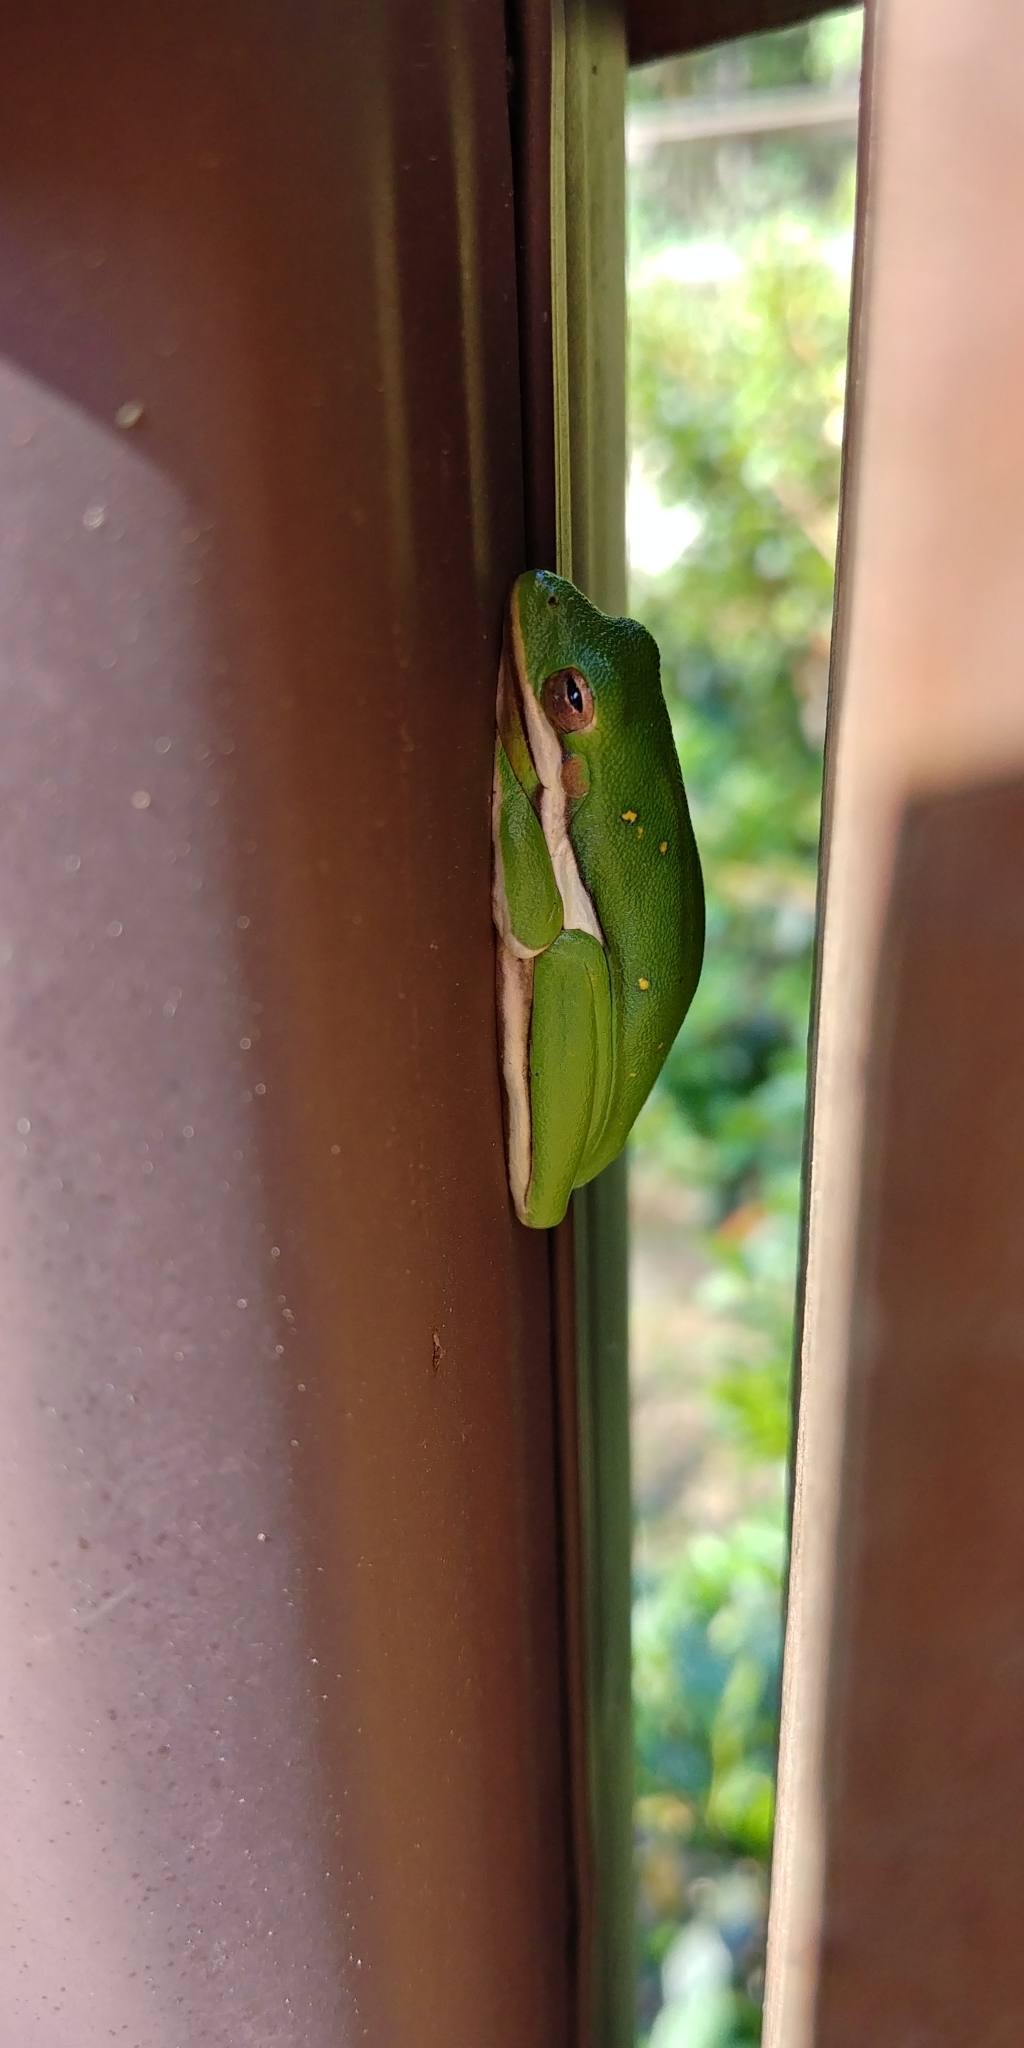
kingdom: Animalia
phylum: Chordata
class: Amphibia
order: Anura
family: Hylidae
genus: Dryophytes
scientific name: Dryophytes cinereus
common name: Green treefrog
